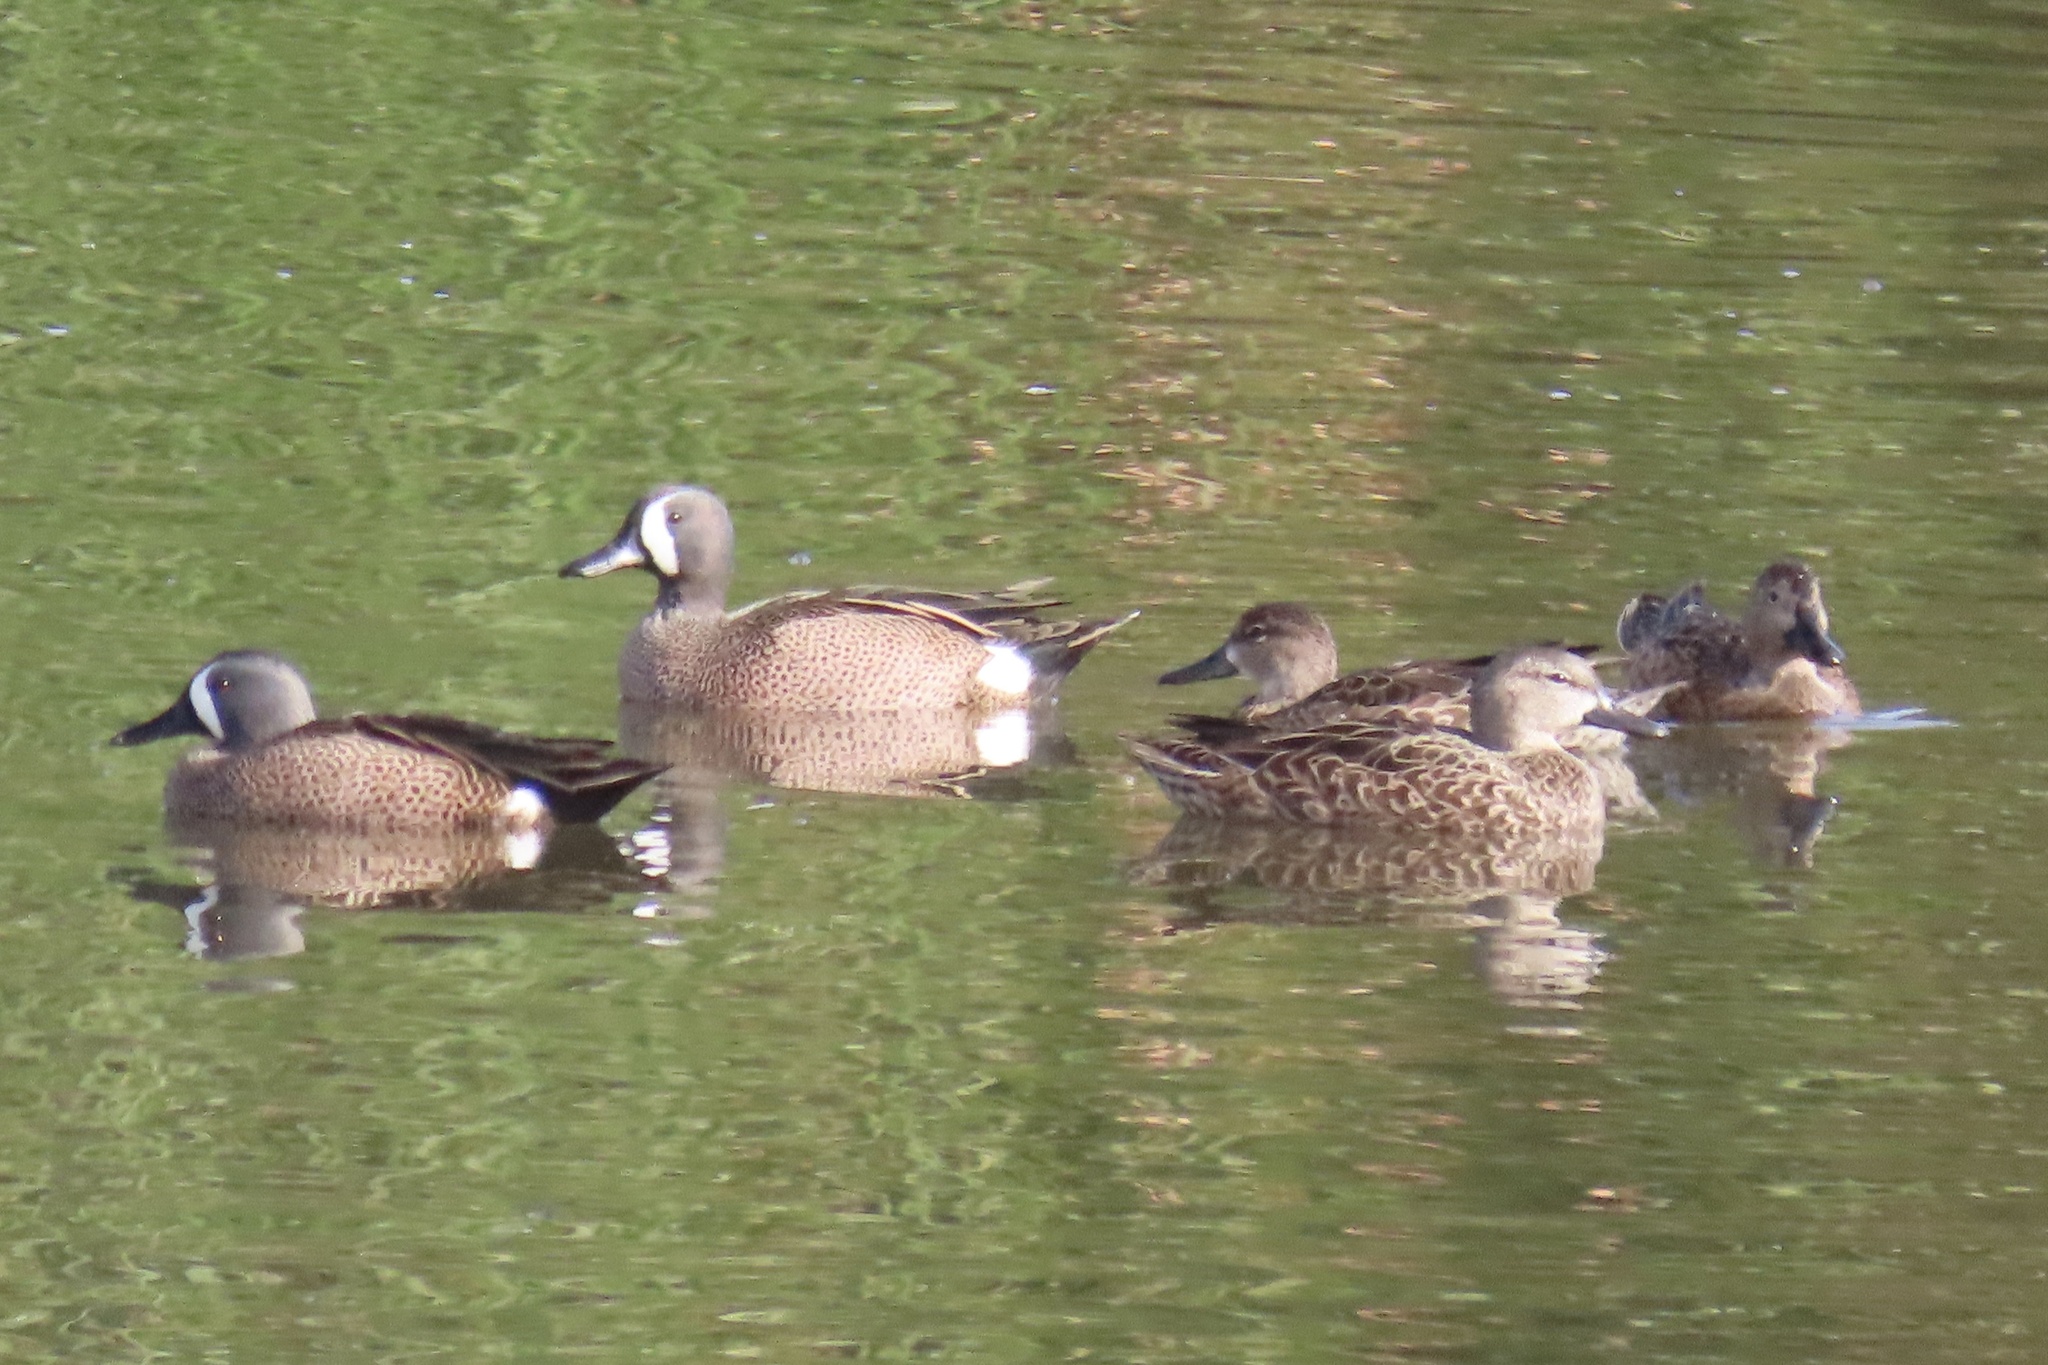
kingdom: Animalia
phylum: Chordata
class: Aves
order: Anseriformes
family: Anatidae
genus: Spatula
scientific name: Spatula discors
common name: Blue-winged teal
